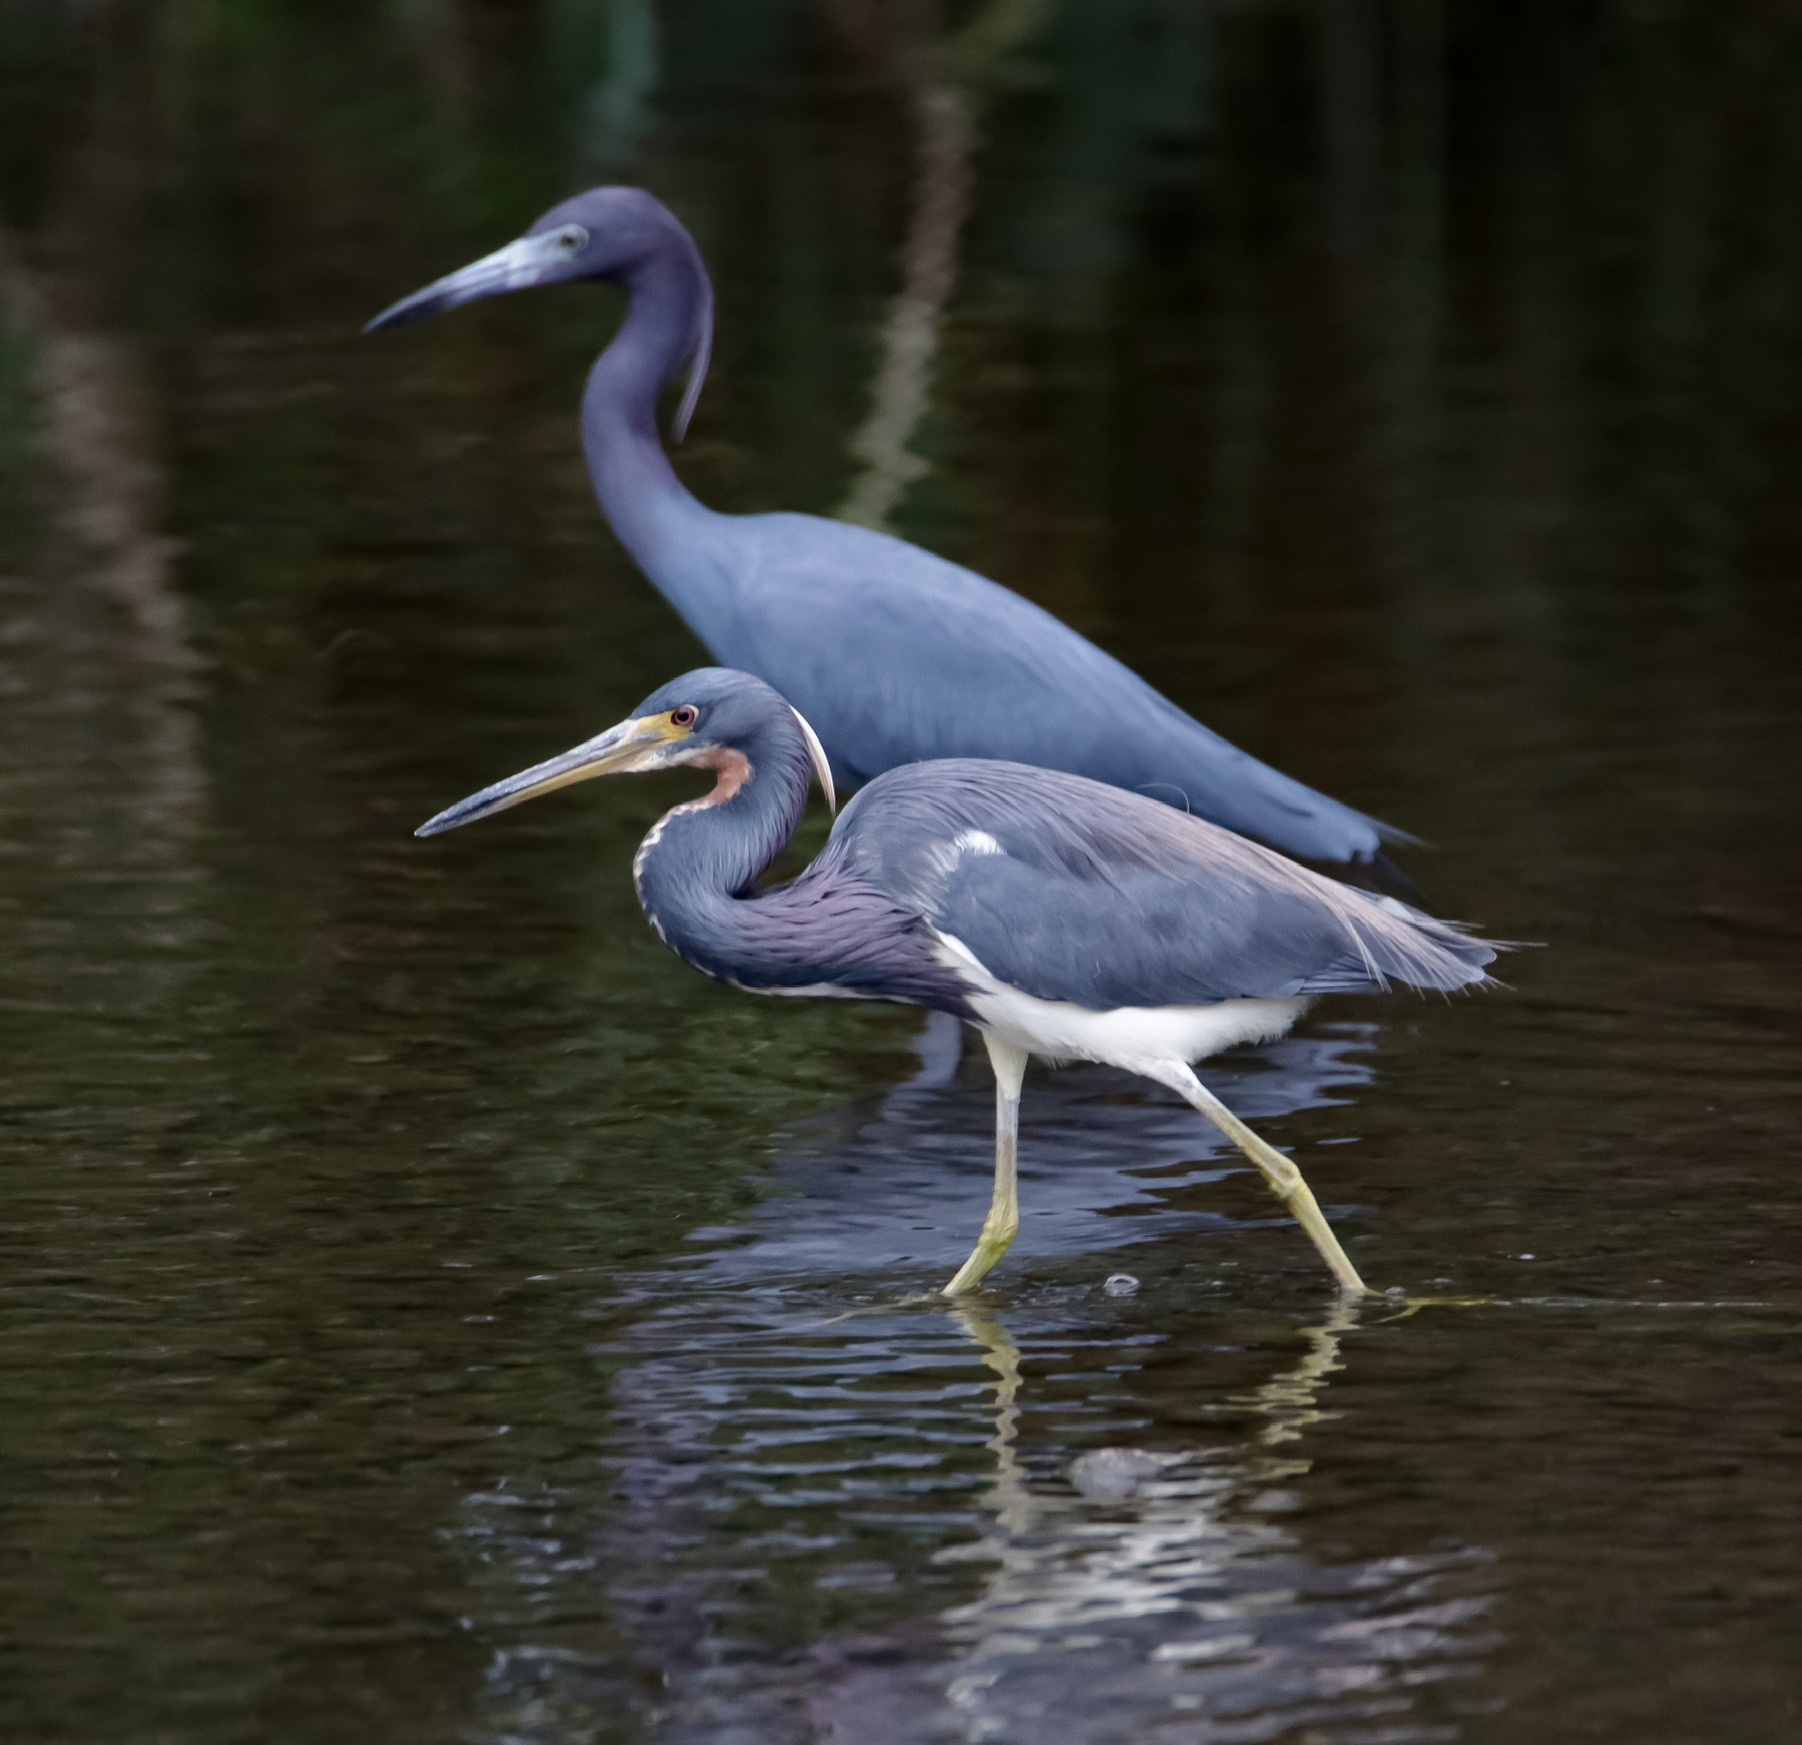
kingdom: Animalia
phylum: Chordata
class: Aves
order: Pelecaniformes
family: Ardeidae
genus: Egretta
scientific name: Egretta tricolor
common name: Tricolored heron
